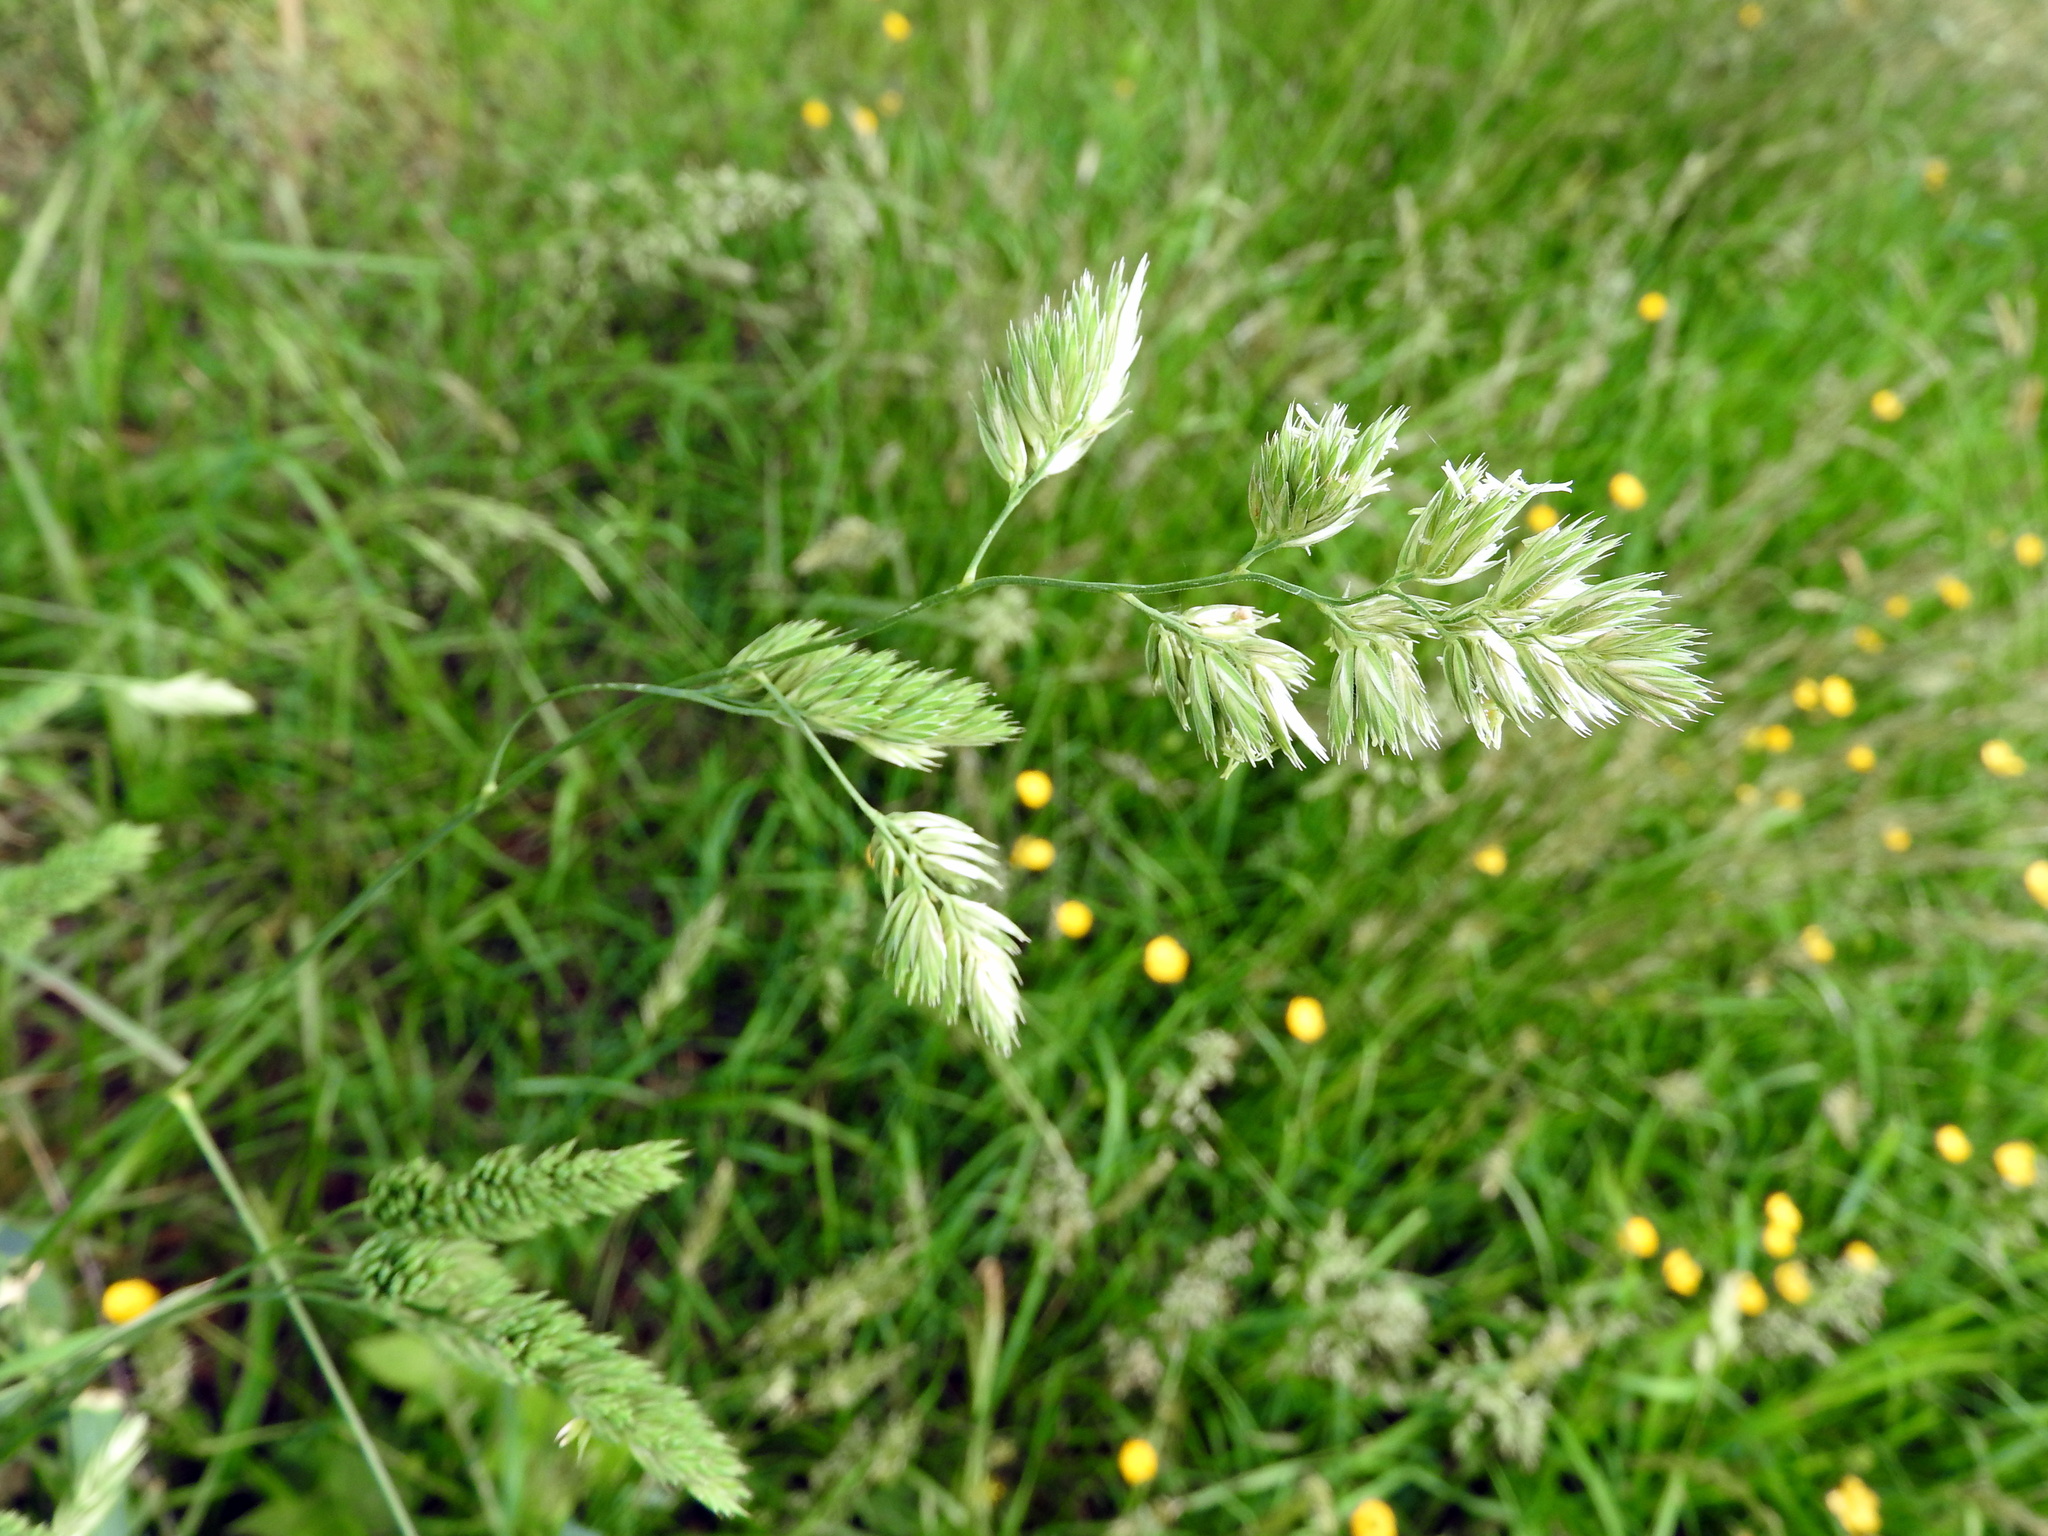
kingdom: Plantae
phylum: Tracheophyta
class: Liliopsida
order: Poales
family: Poaceae
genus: Dactylis
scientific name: Dactylis glomerata
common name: Orchardgrass
